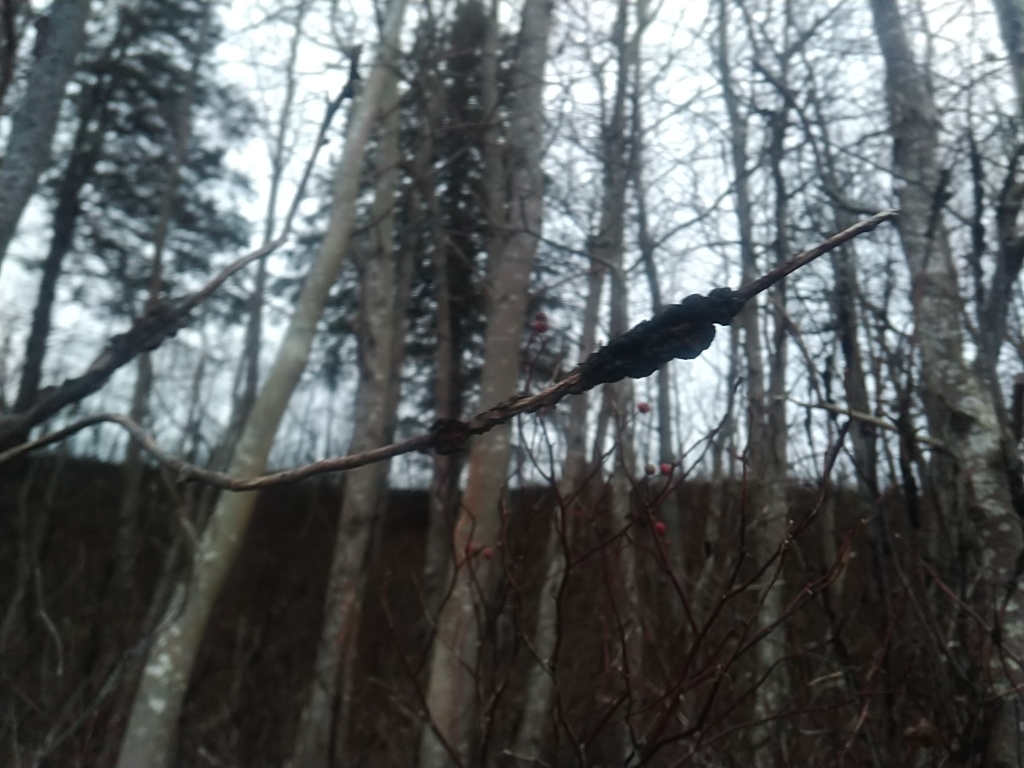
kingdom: Fungi
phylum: Ascomycota
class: Dothideomycetes
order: Venturiales
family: Venturiaceae
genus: Apiosporina
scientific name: Apiosporina morbosa
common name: Black knot
